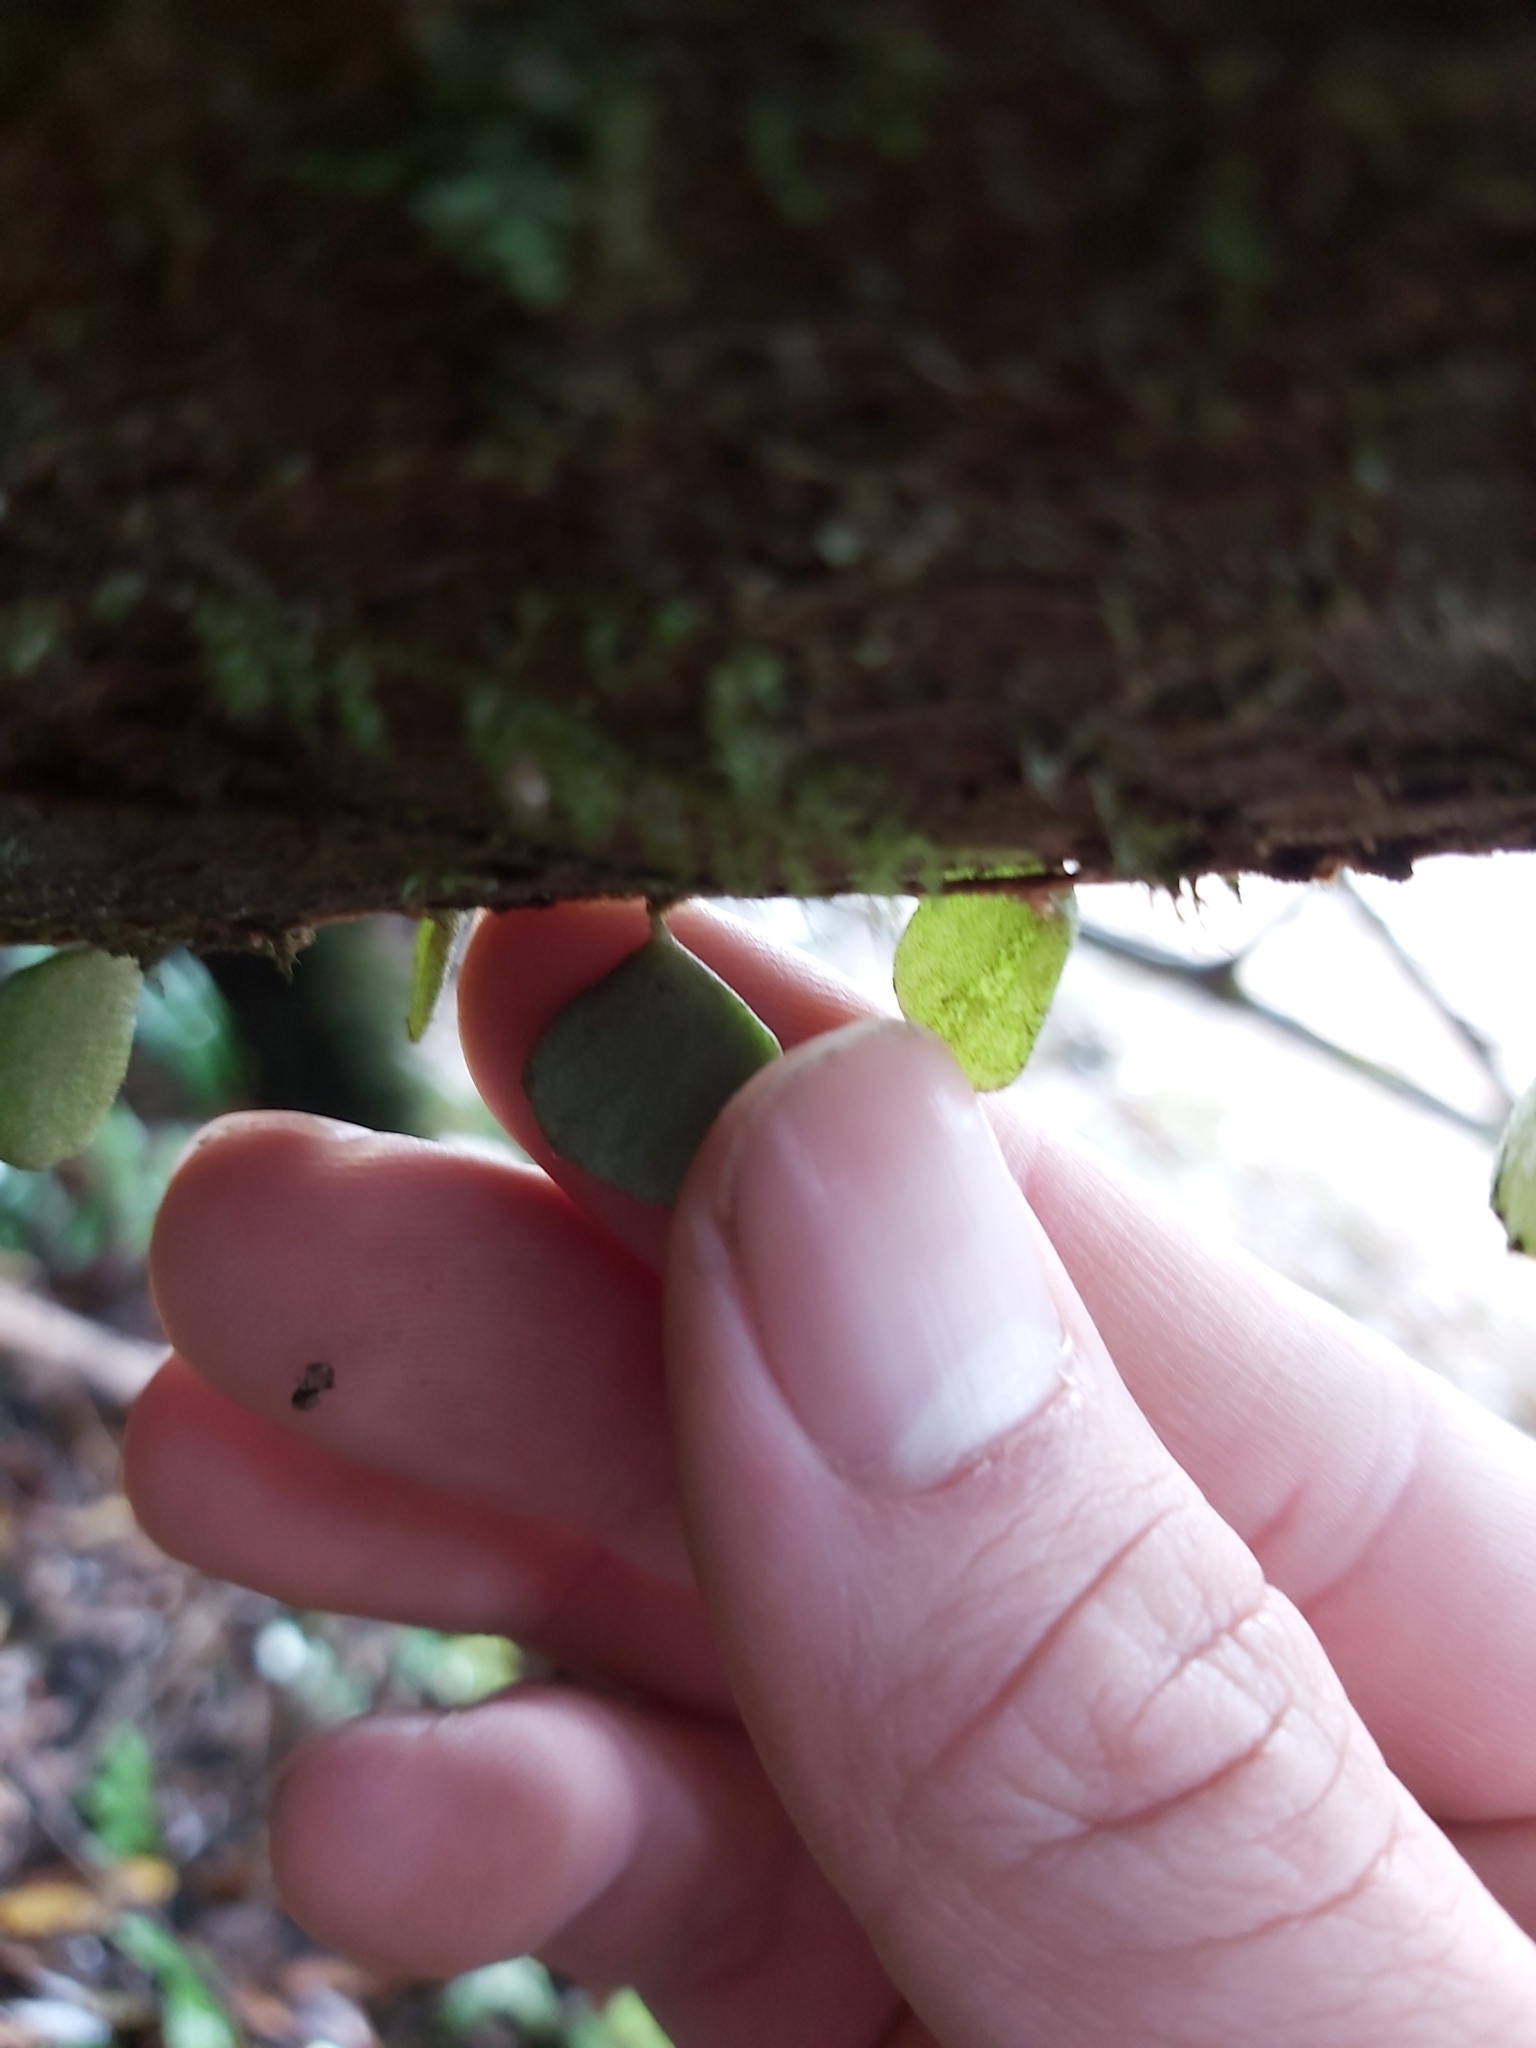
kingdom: Plantae
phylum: Tracheophyta
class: Polypodiopsida
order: Polypodiales
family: Polypodiaceae
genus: Pyrrosia
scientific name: Pyrrosia rupestris
